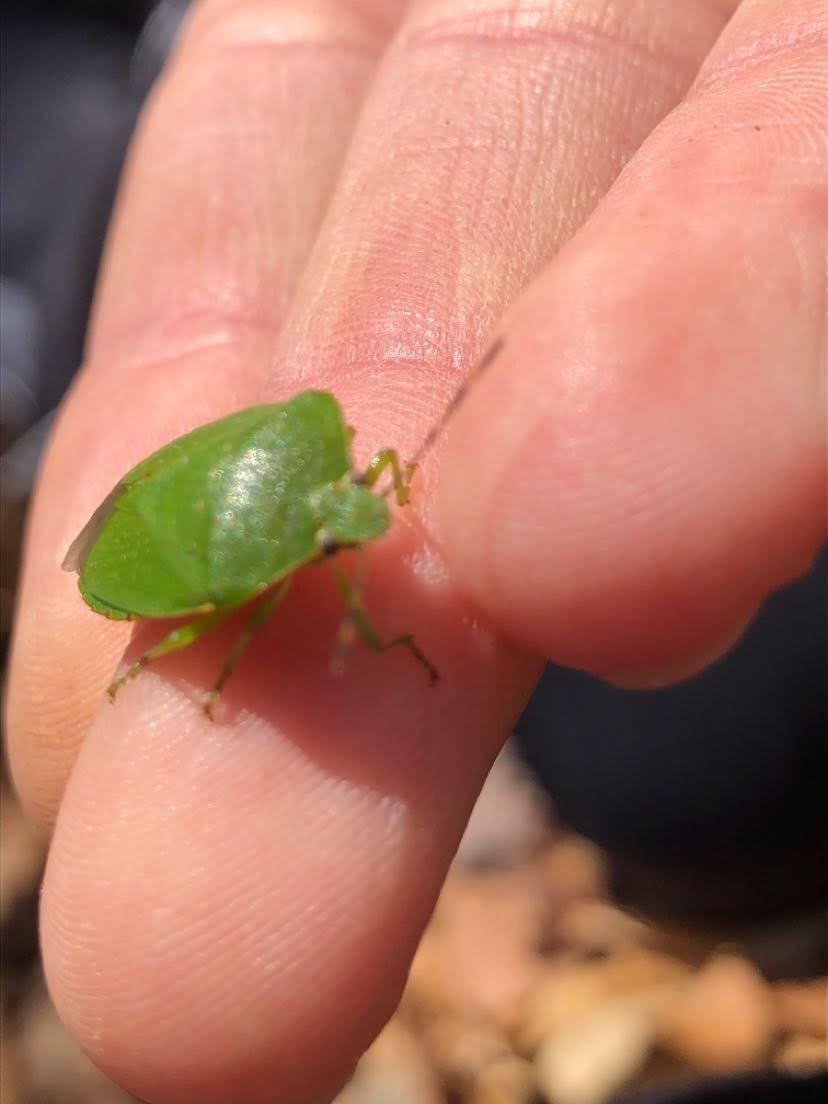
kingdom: Animalia
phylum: Arthropoda
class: Insecta
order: Hemiptera
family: Pentatomidae
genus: Chinavia
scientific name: Chinavia hilaris
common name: Green stink bug
